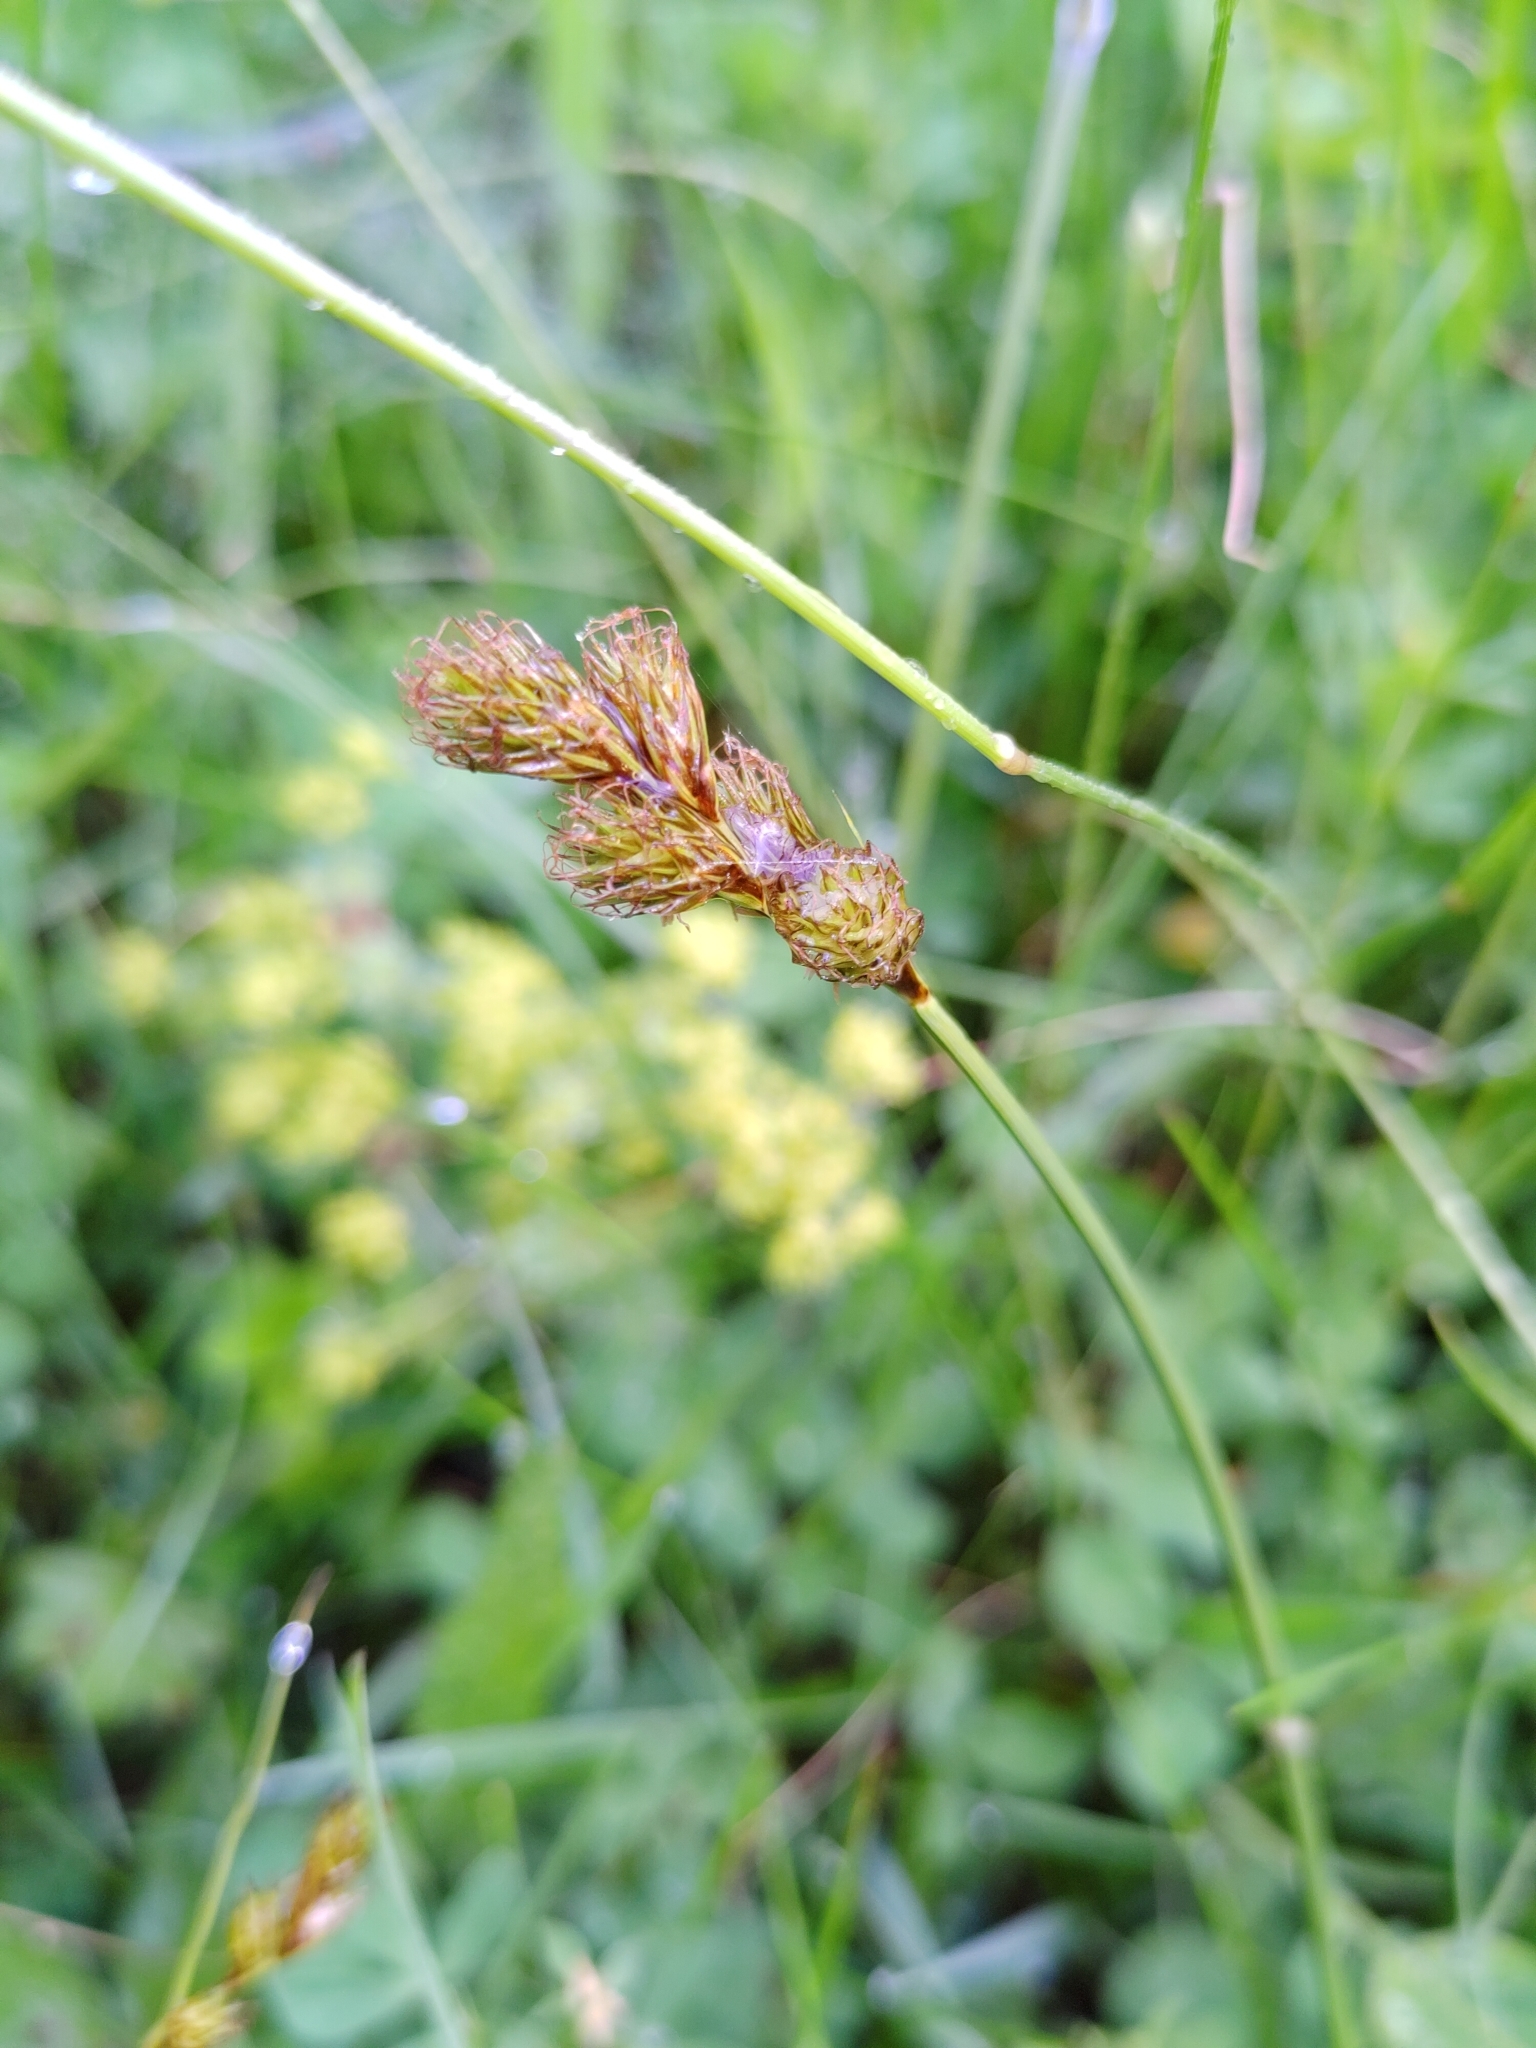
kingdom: Plantae
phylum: Tracheophyta
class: Liliopsida
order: Poales
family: Cyperaceae
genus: Carex
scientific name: Carex leporina
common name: Oval sedge
